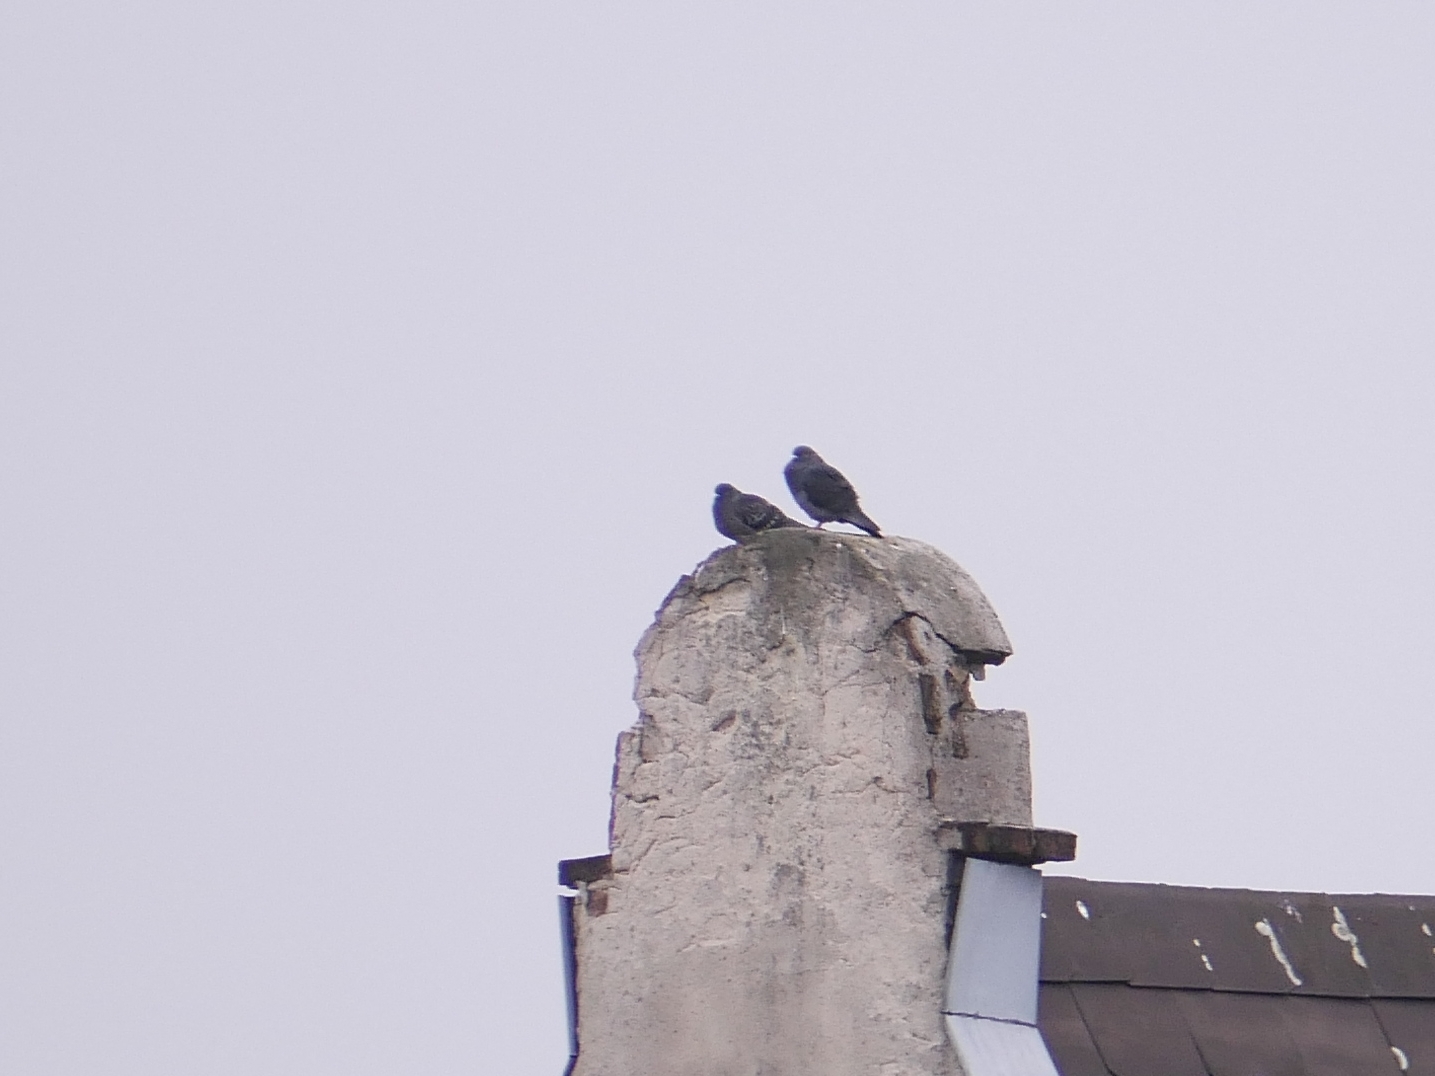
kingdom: Animalia
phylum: Chordata
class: Aves
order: Columbiformes
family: Columbidae
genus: Columba
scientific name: Columba livia
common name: Rock pigeon
